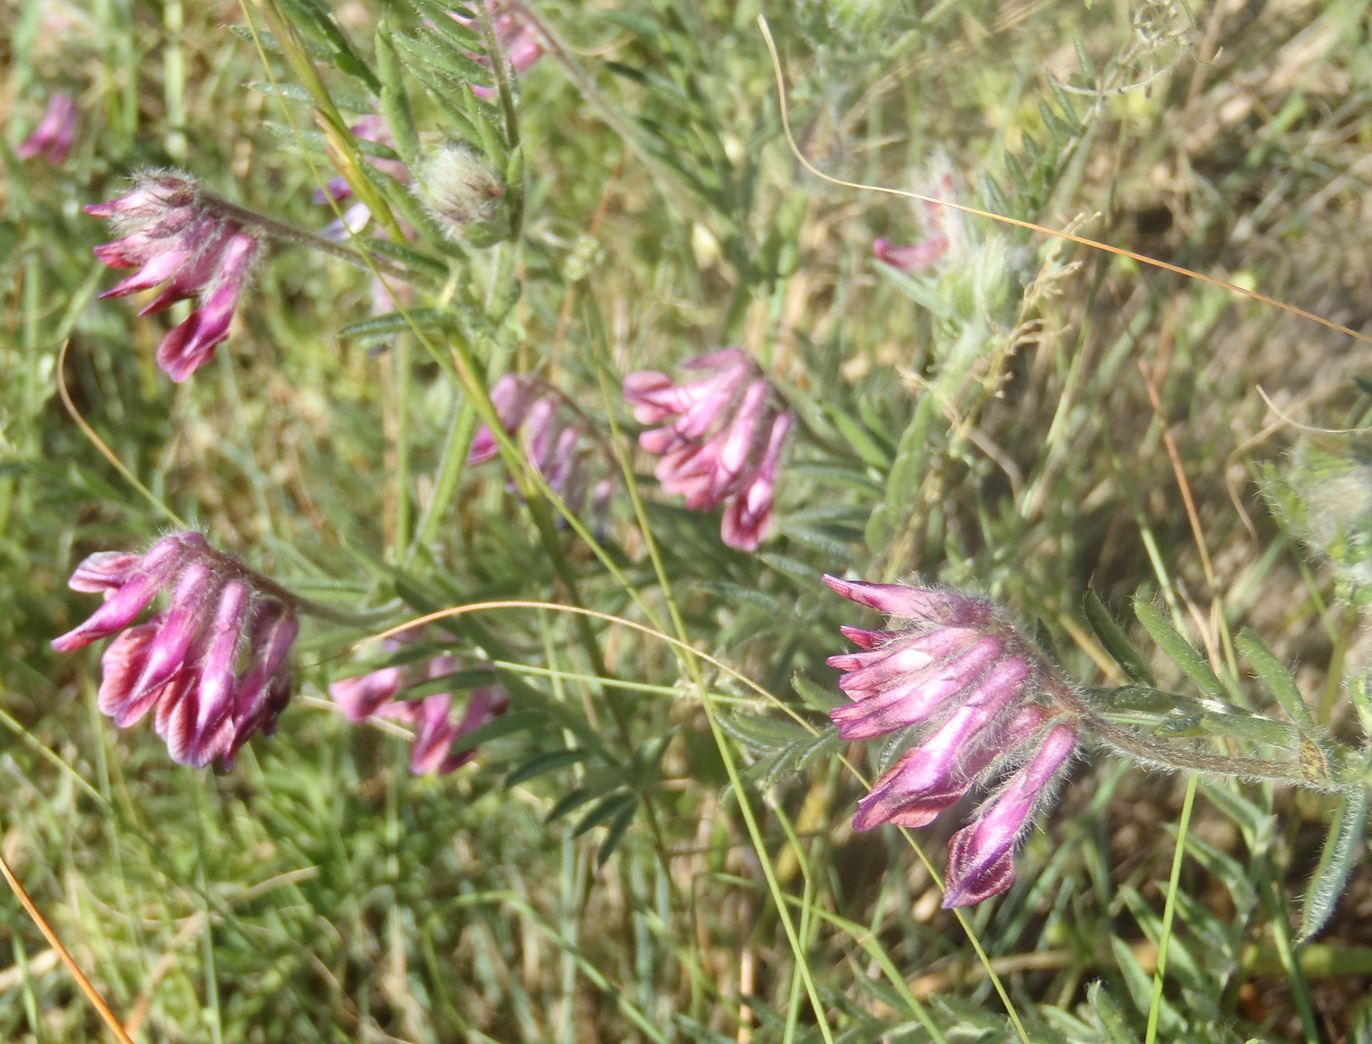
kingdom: Plantae
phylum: Tracheophyta
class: Magnoliopsida
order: Fabales
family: Fabaceae
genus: Vicia
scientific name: Vicia benghalensis
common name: Purple vetch
